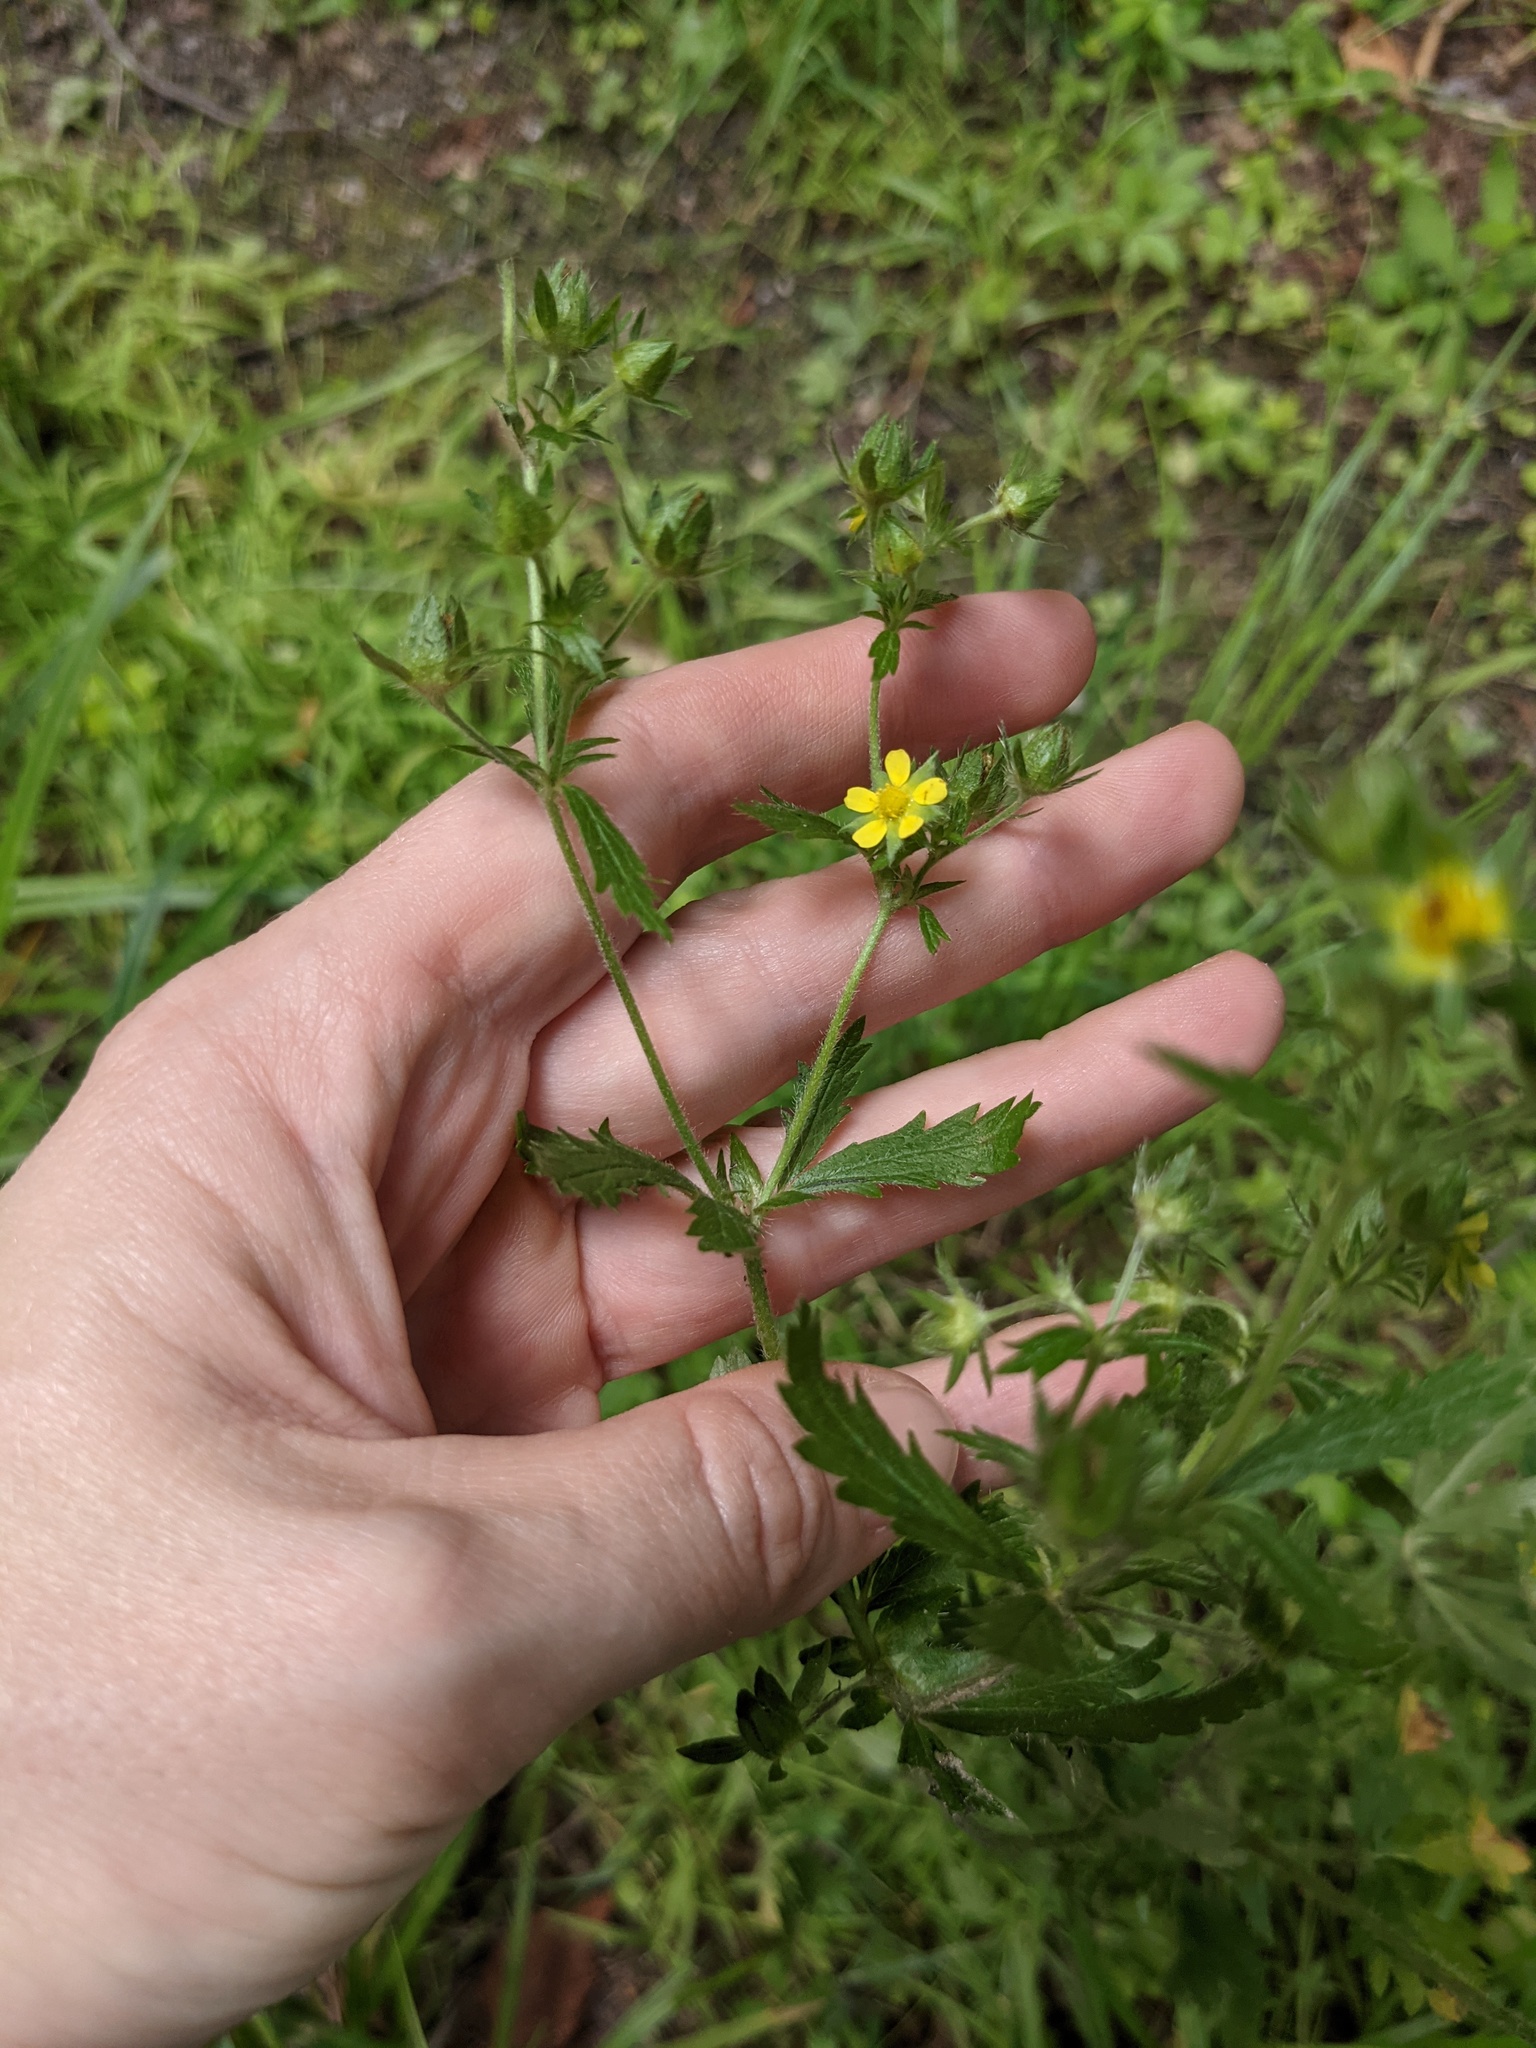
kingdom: Plantae
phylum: Tracheophyta
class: Magnoliopsida
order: Rosales
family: Rosaceae
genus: Potentilla
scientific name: Potentilla norvegica
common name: Ternate-leaved cinquefoil
